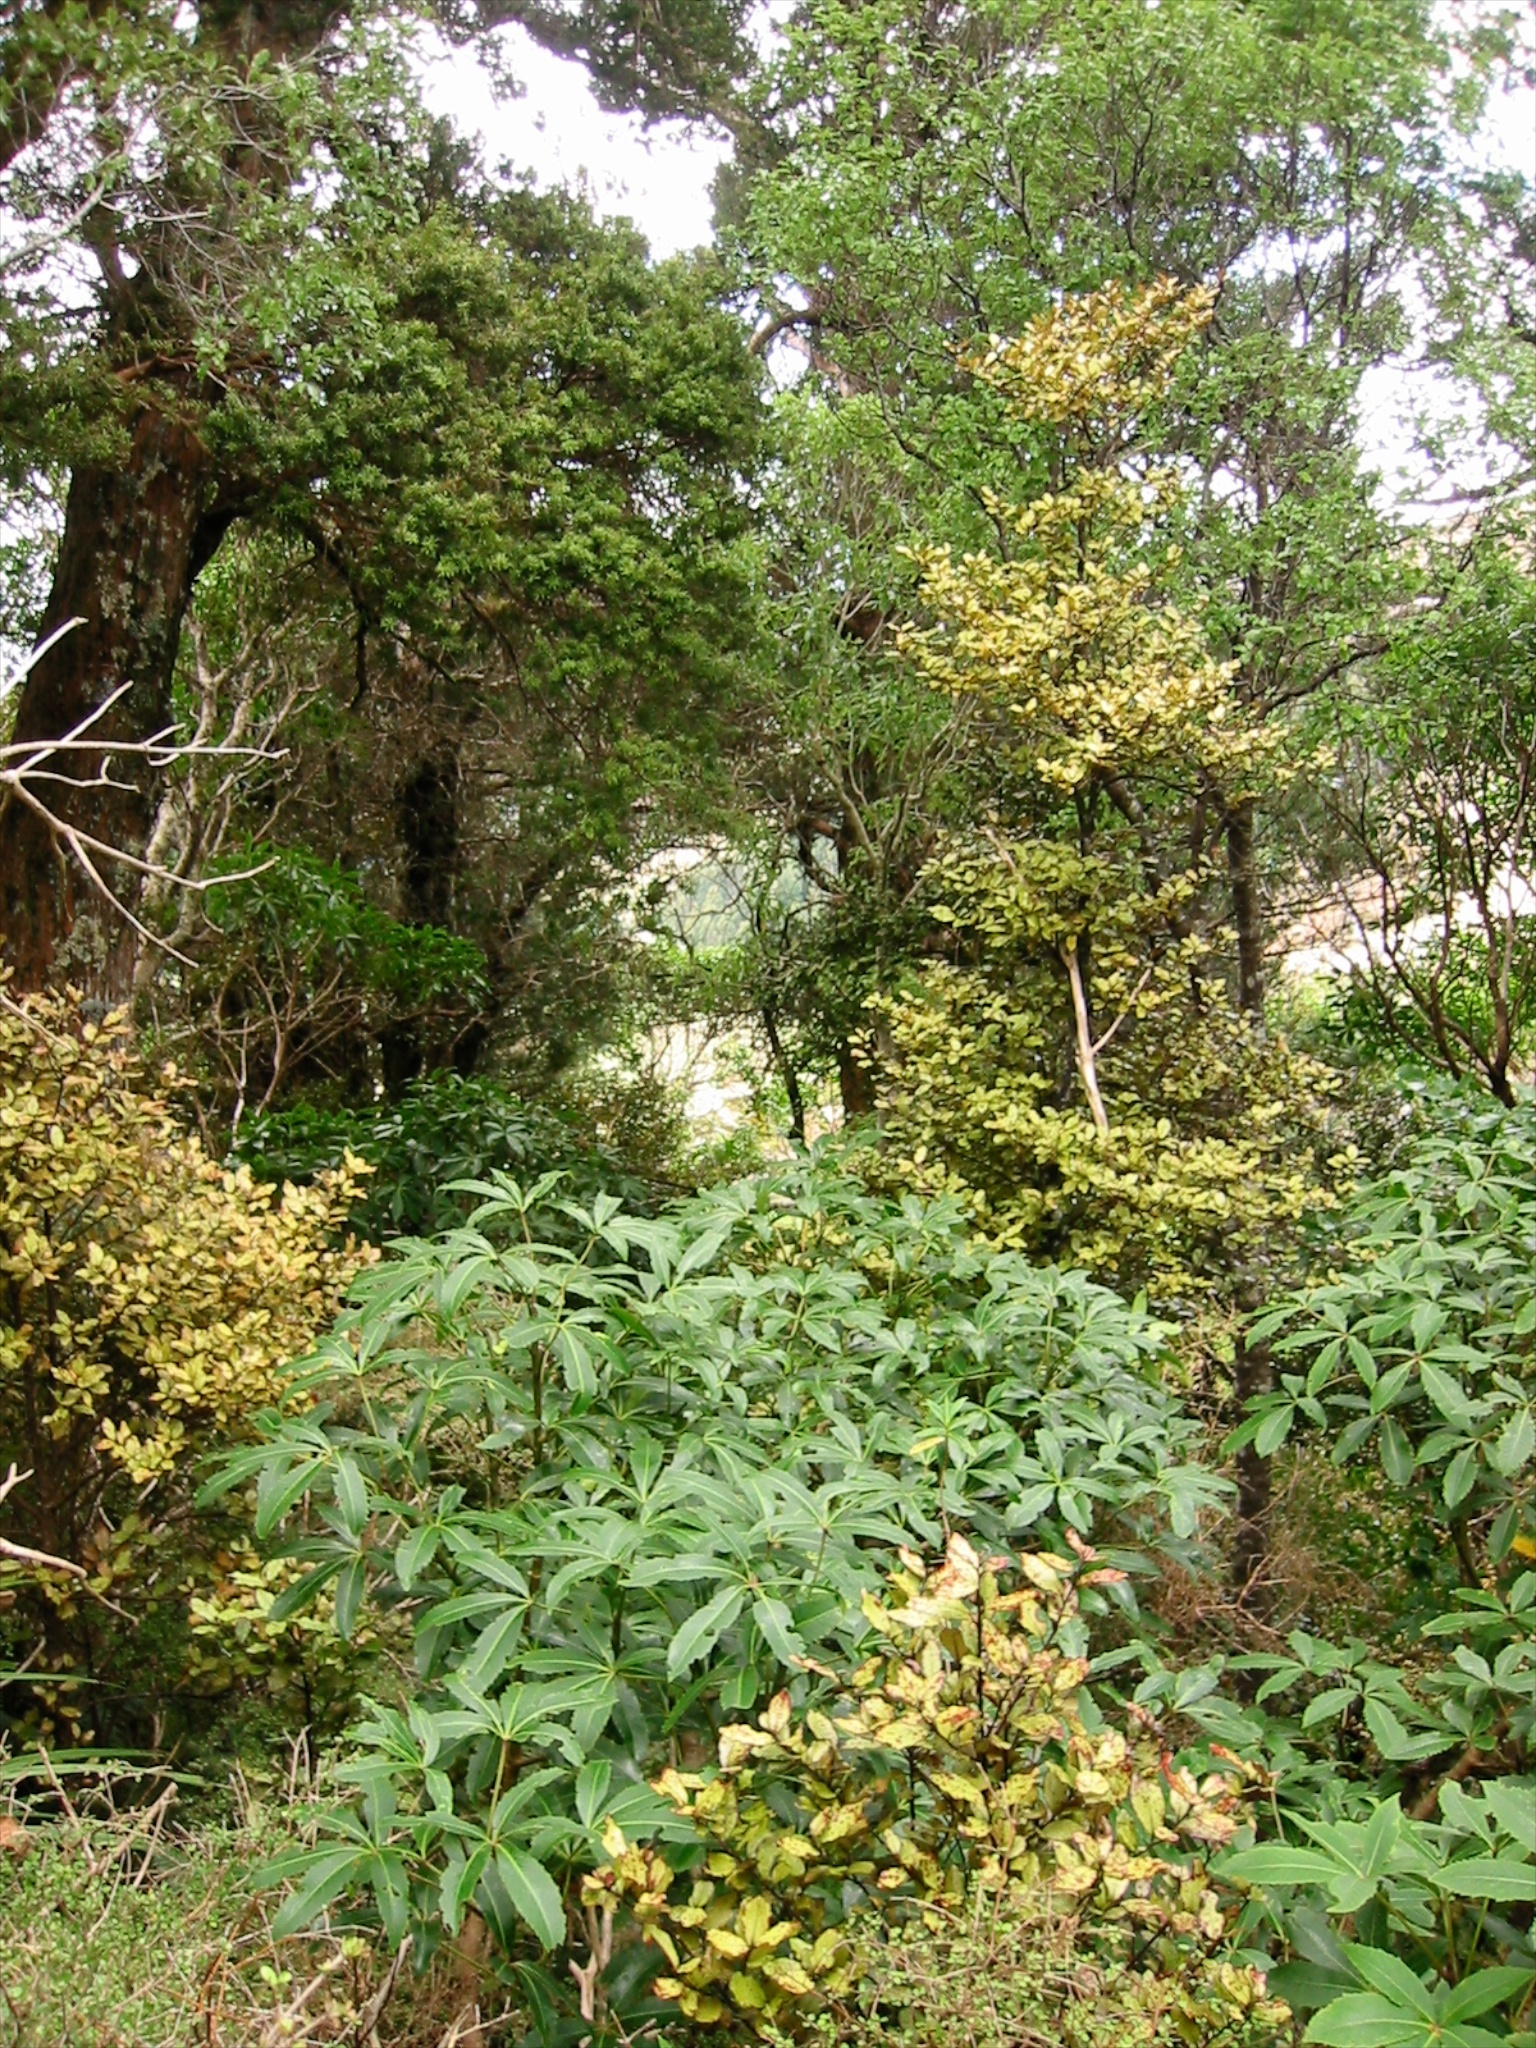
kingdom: Plantae
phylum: Tracheophyta
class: Magnoliopsida
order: Apiales
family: Araliaceae
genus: Neopanax
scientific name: Neopanax colensoi
